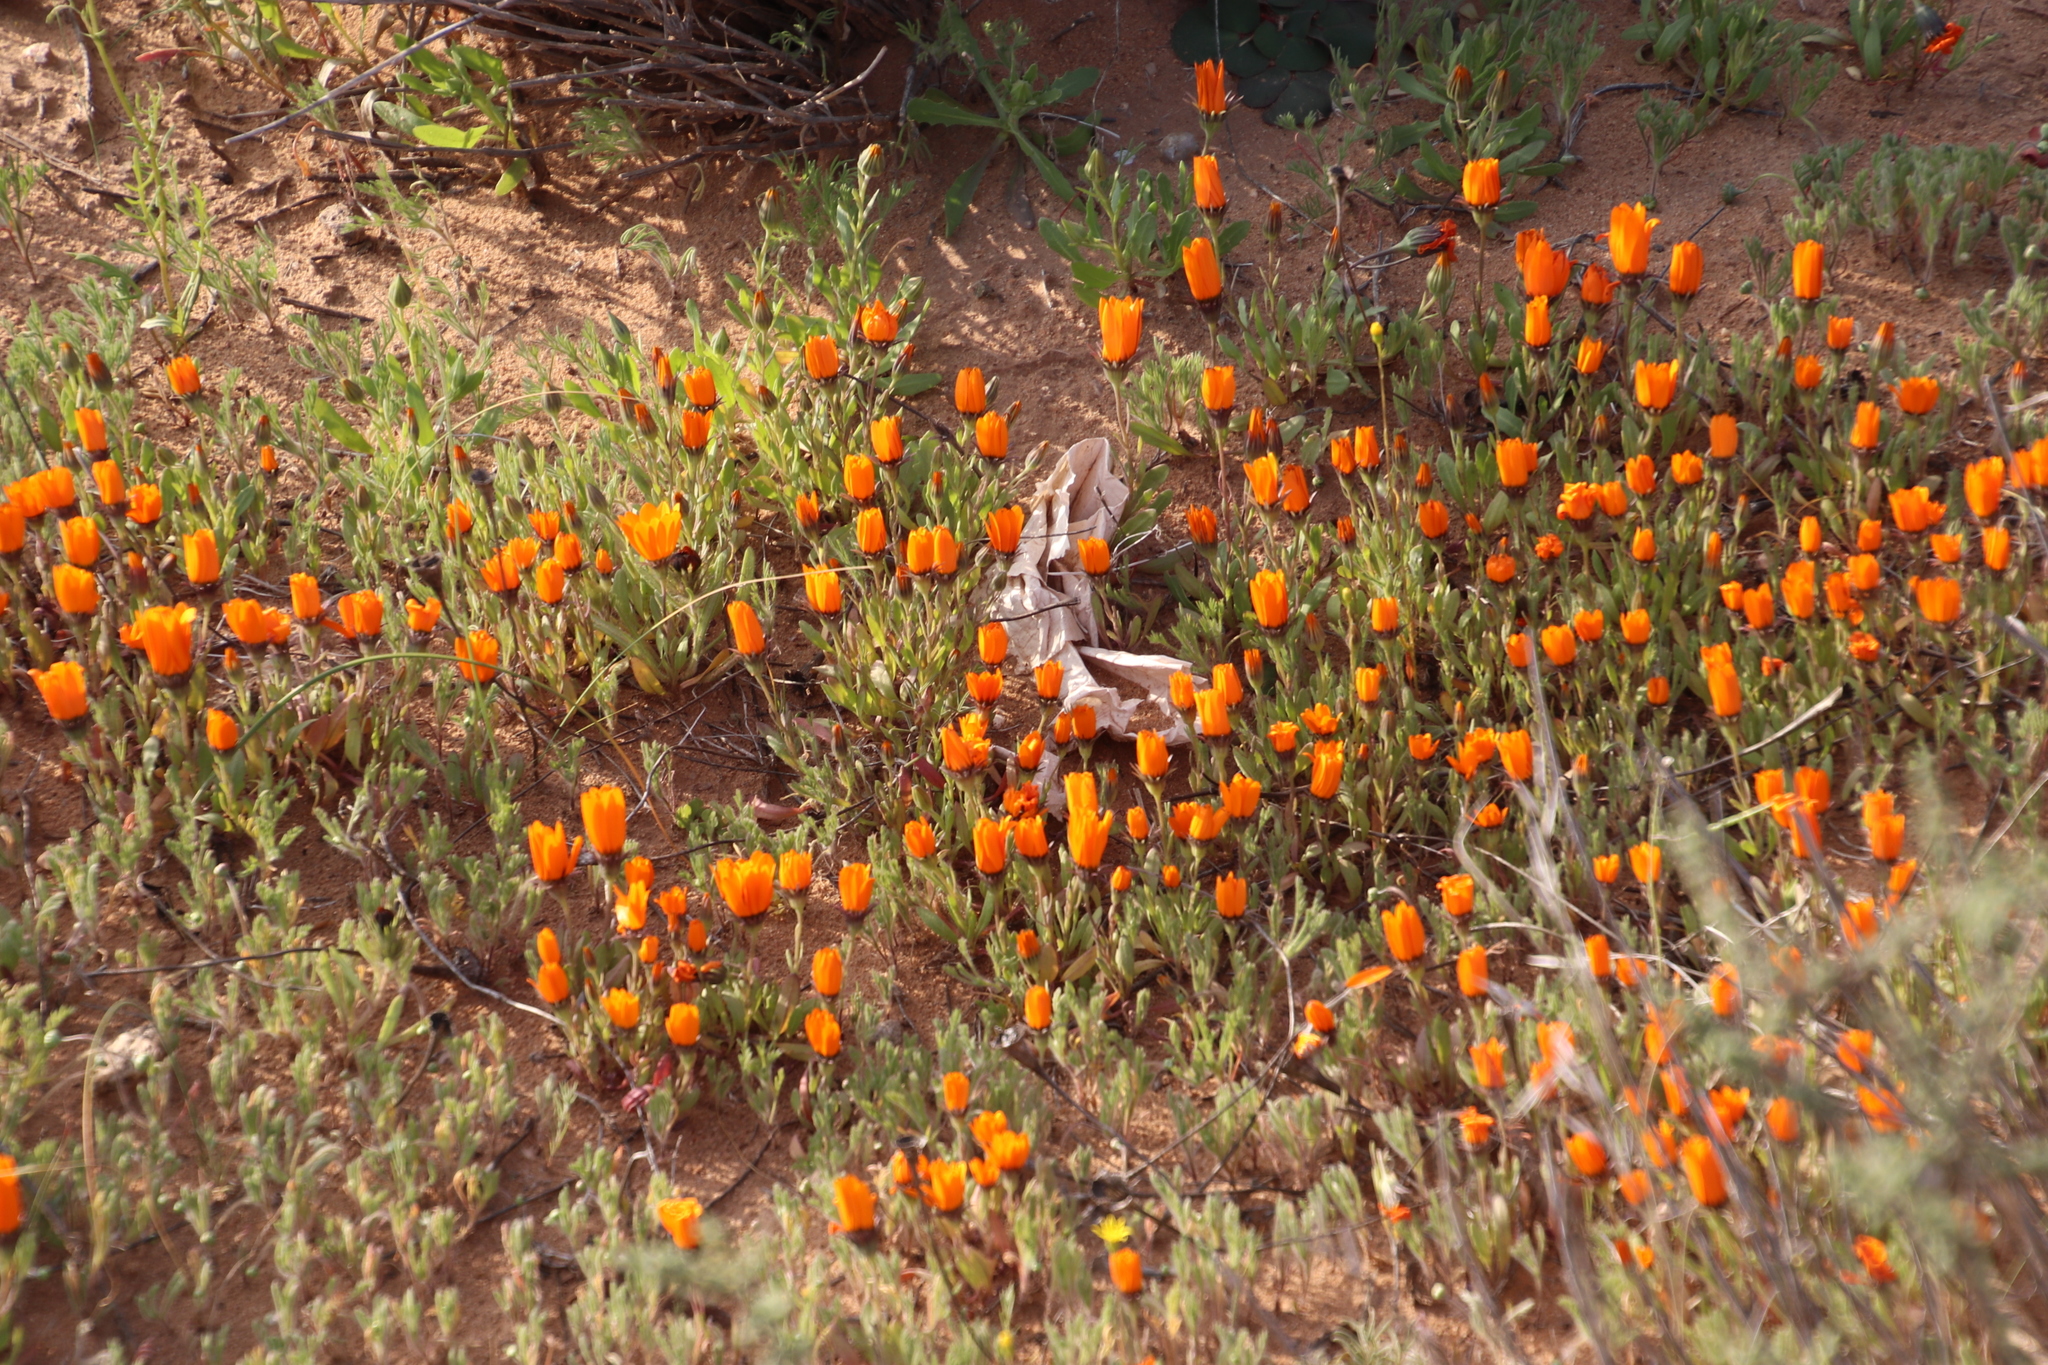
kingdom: Plantae
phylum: Tracheophyta
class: Magnoliopsida
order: Asterales
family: Asteraceae
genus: Dimorphotheca
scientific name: Dimorphotheca sinuata
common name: Glandular cape marigold
